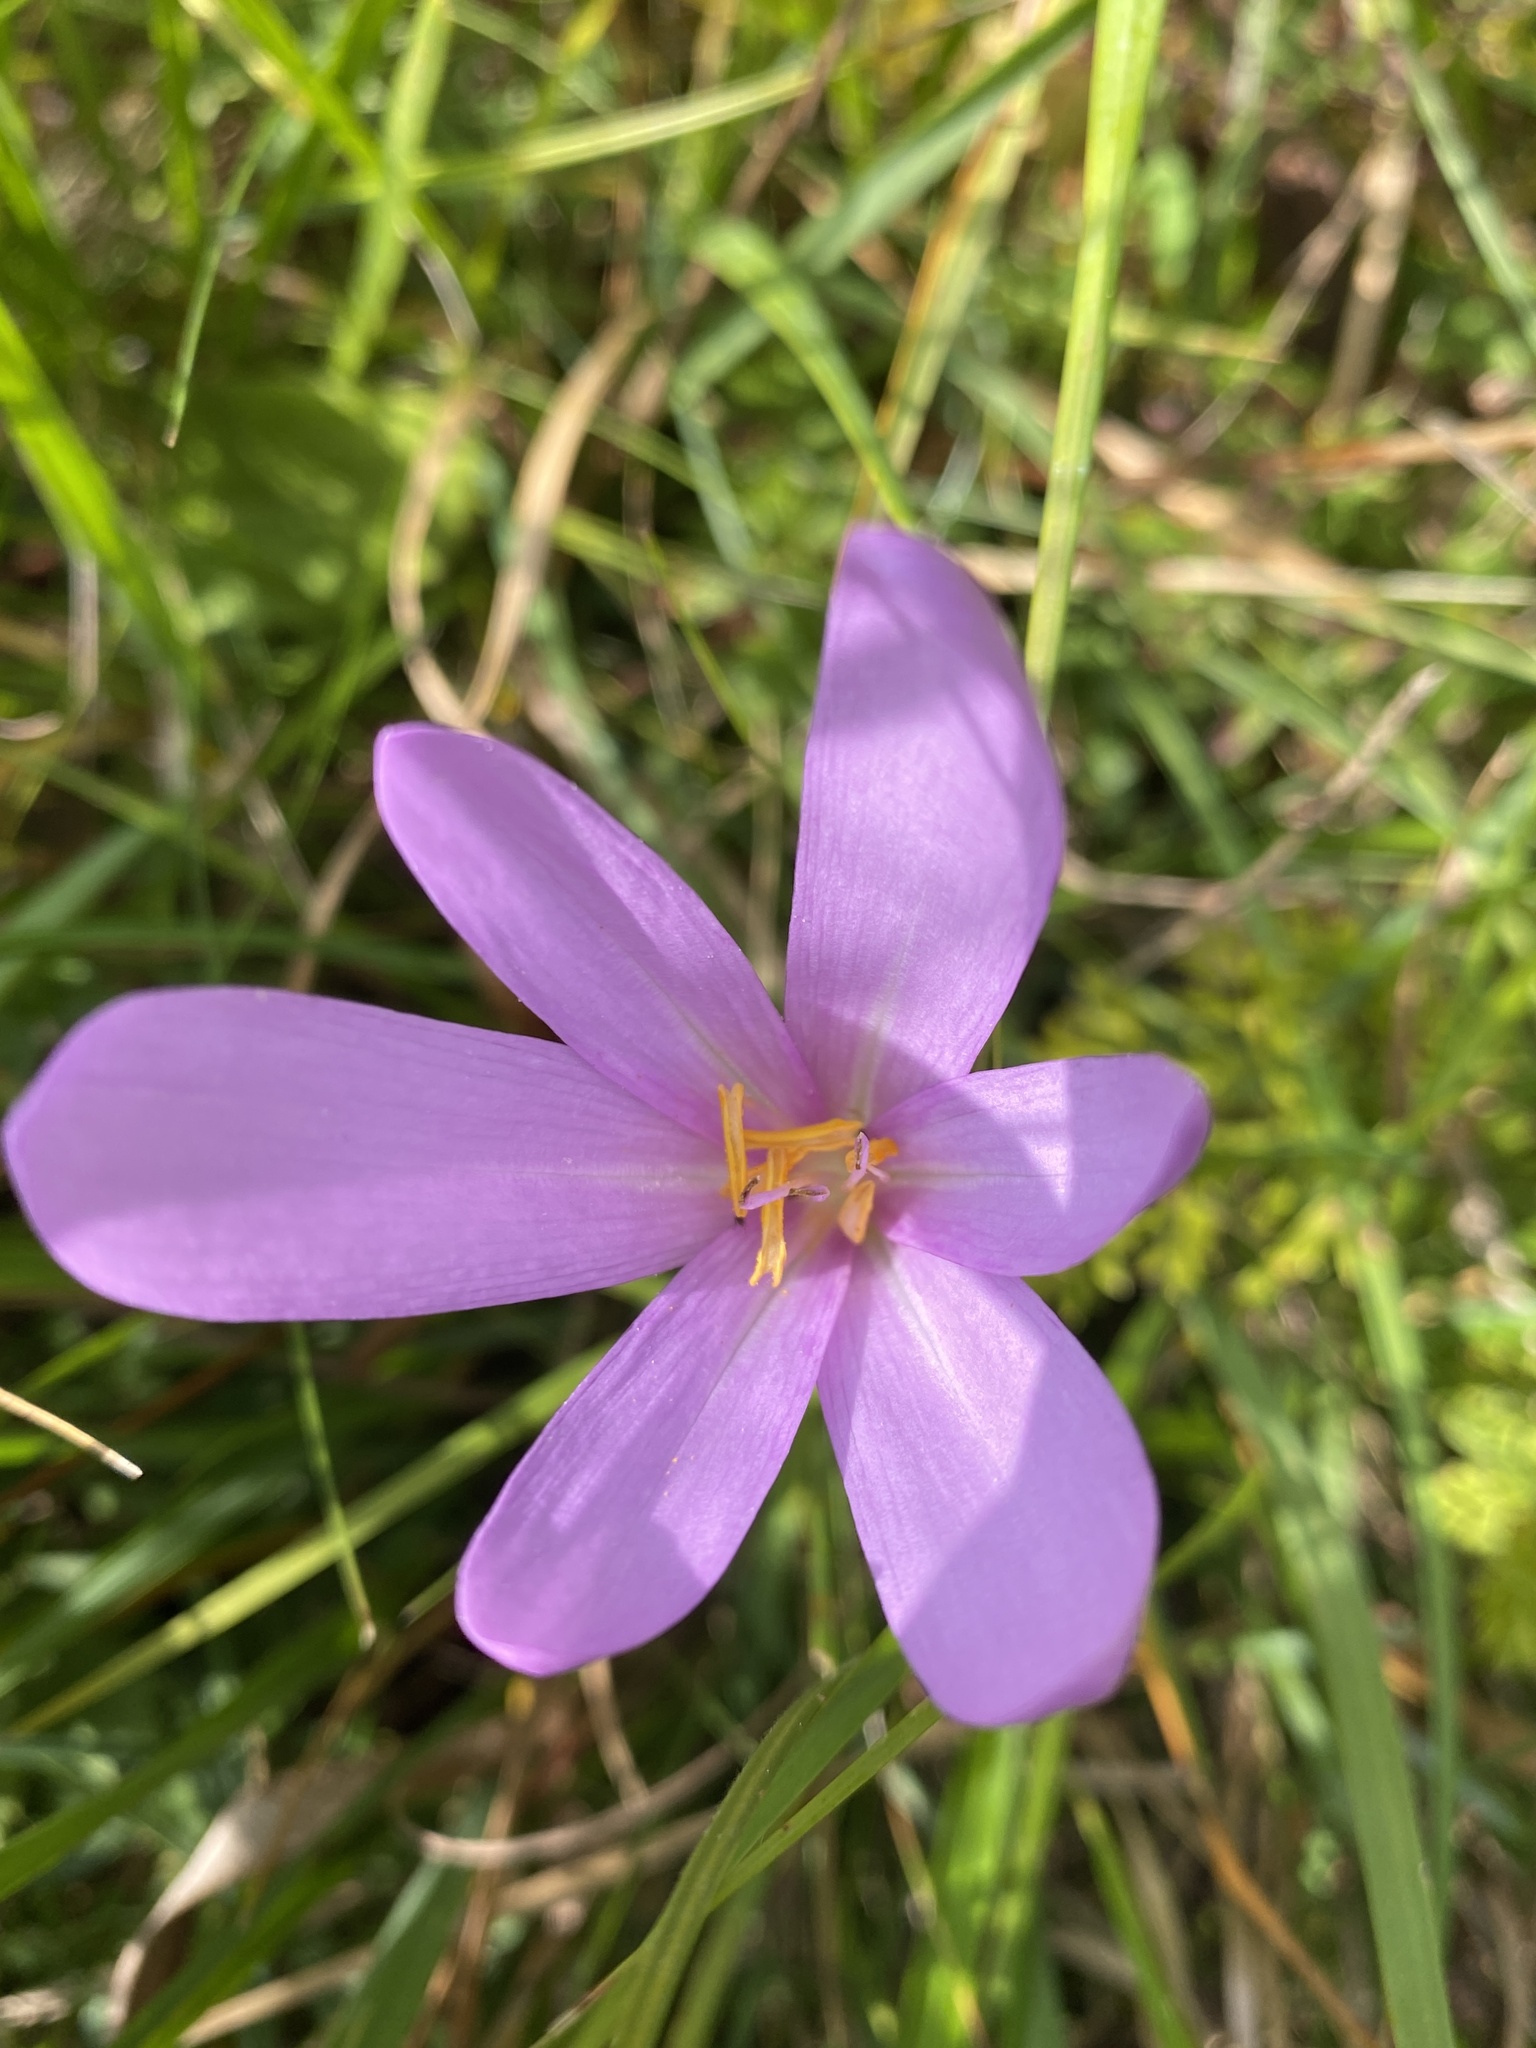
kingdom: Plantae
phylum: Tracheophyta
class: Liliopsida
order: Liliales
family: Colchicaceae
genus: Colchicum
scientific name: Colchicum autumnale
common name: Autumn crocus
